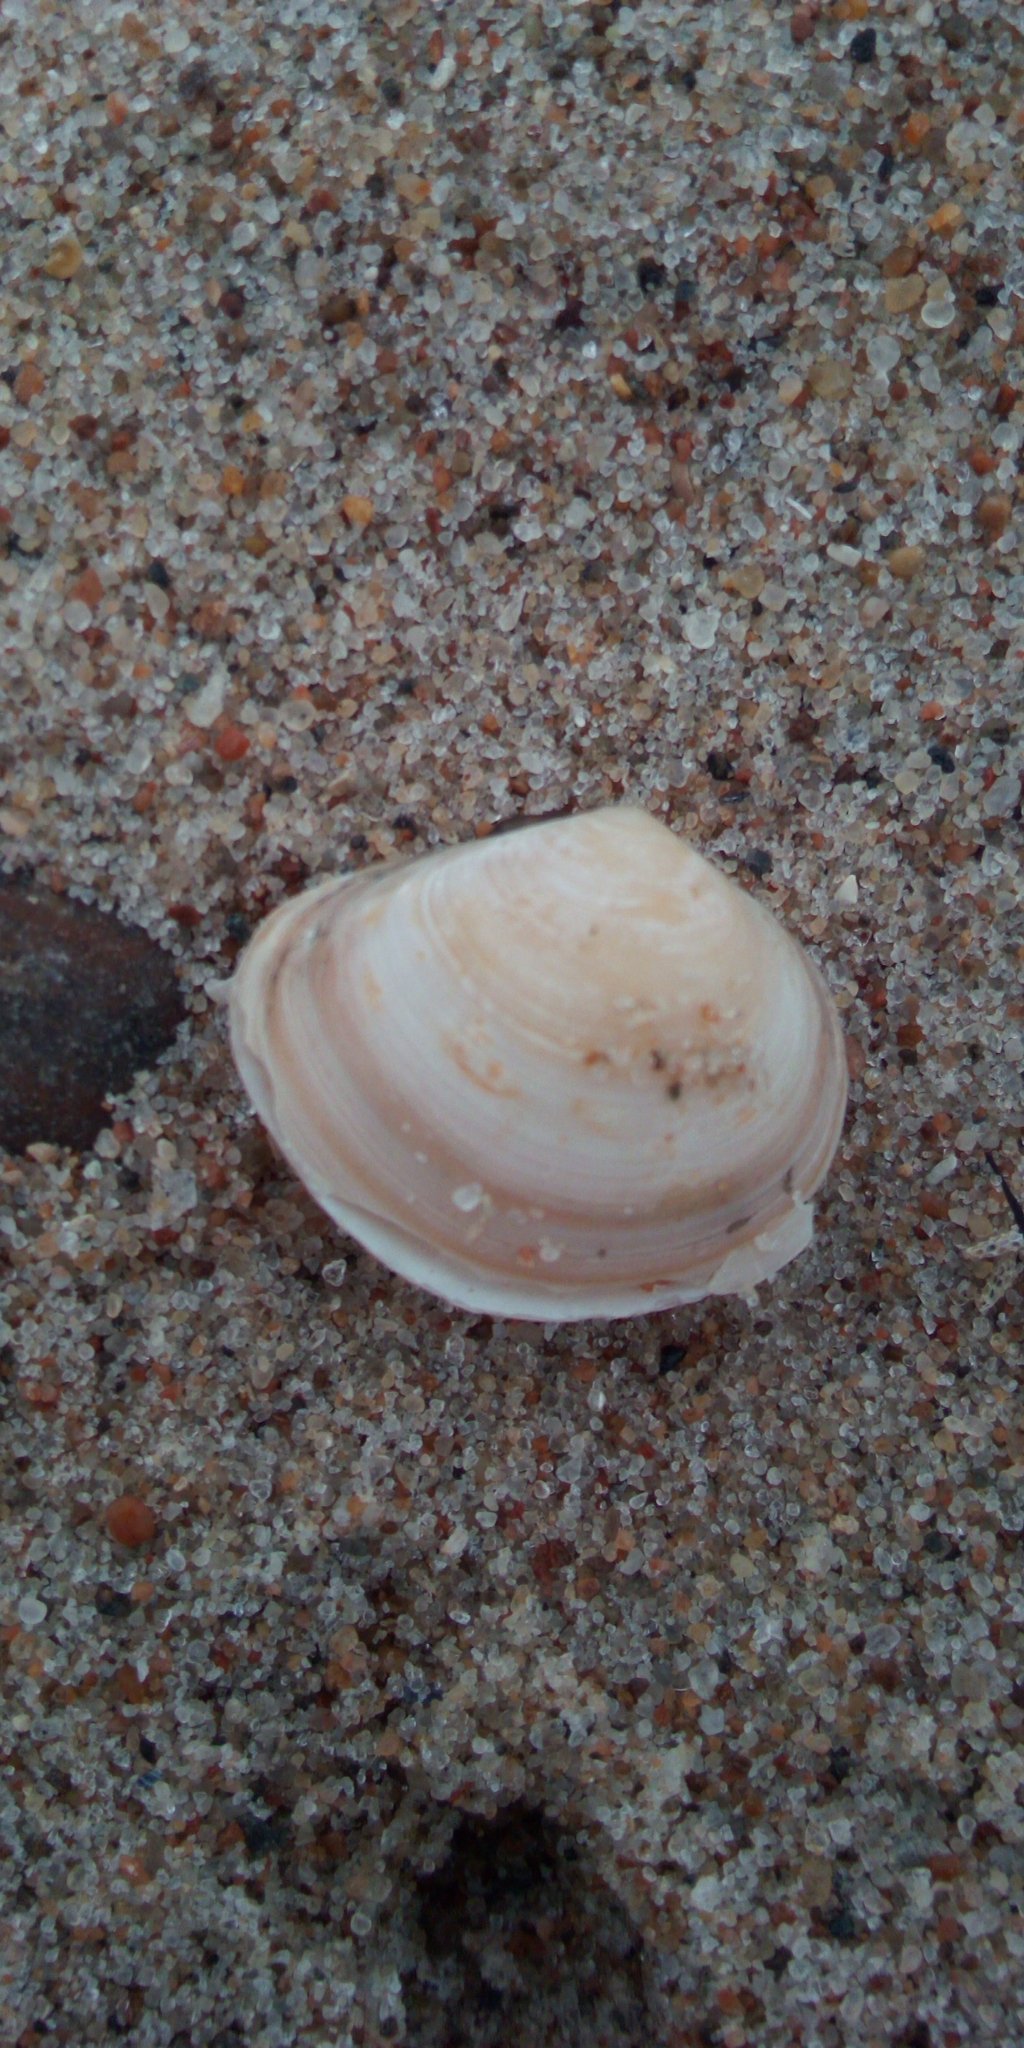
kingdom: Animalia
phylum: Mollusca
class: Bivalvia
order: Cardiida
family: Tellinidae
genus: Macoma
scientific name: Macoma balthica
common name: Baltic tellin
